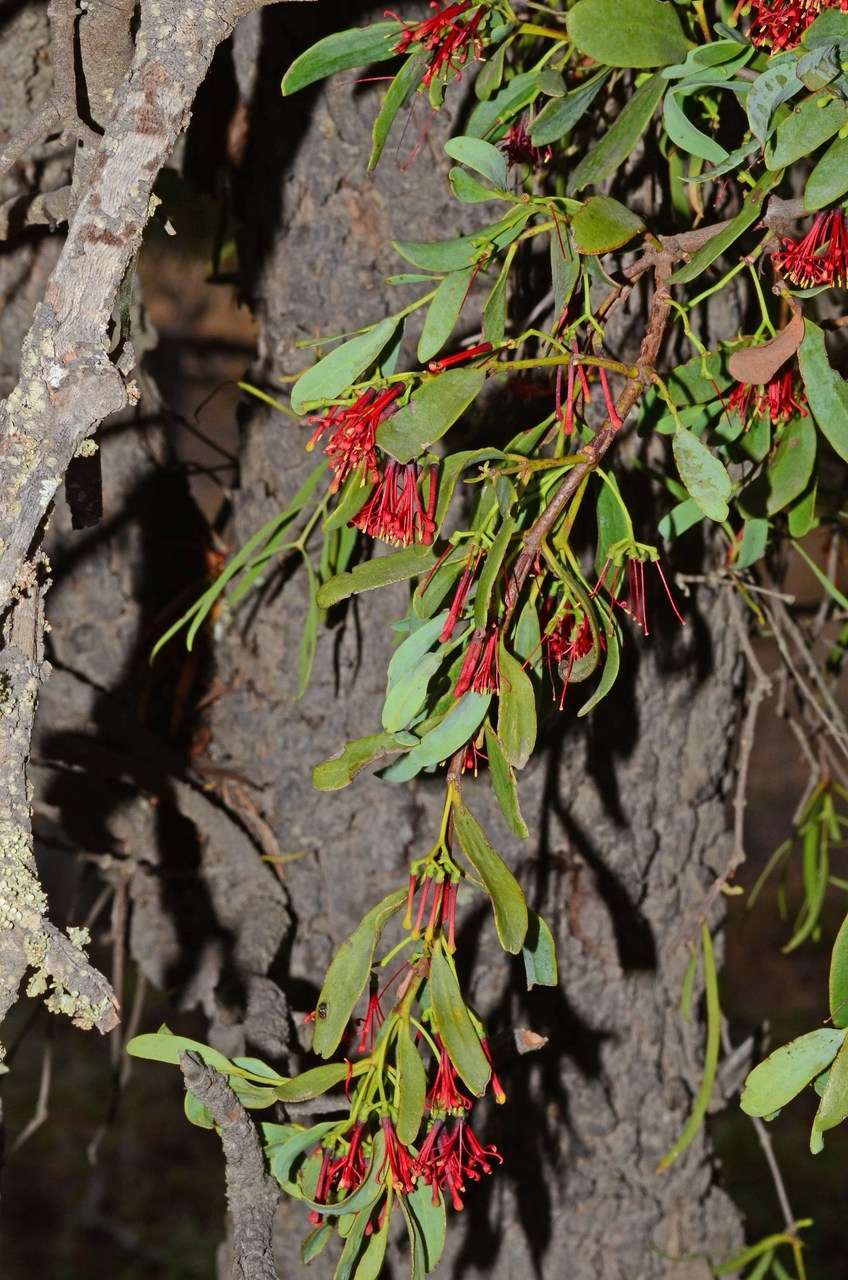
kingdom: Plantae
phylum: Tracheophyta
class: Magnoliopsida
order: Santalales
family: Loranthaceae
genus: Amyema
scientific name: Amyema miraculosa
